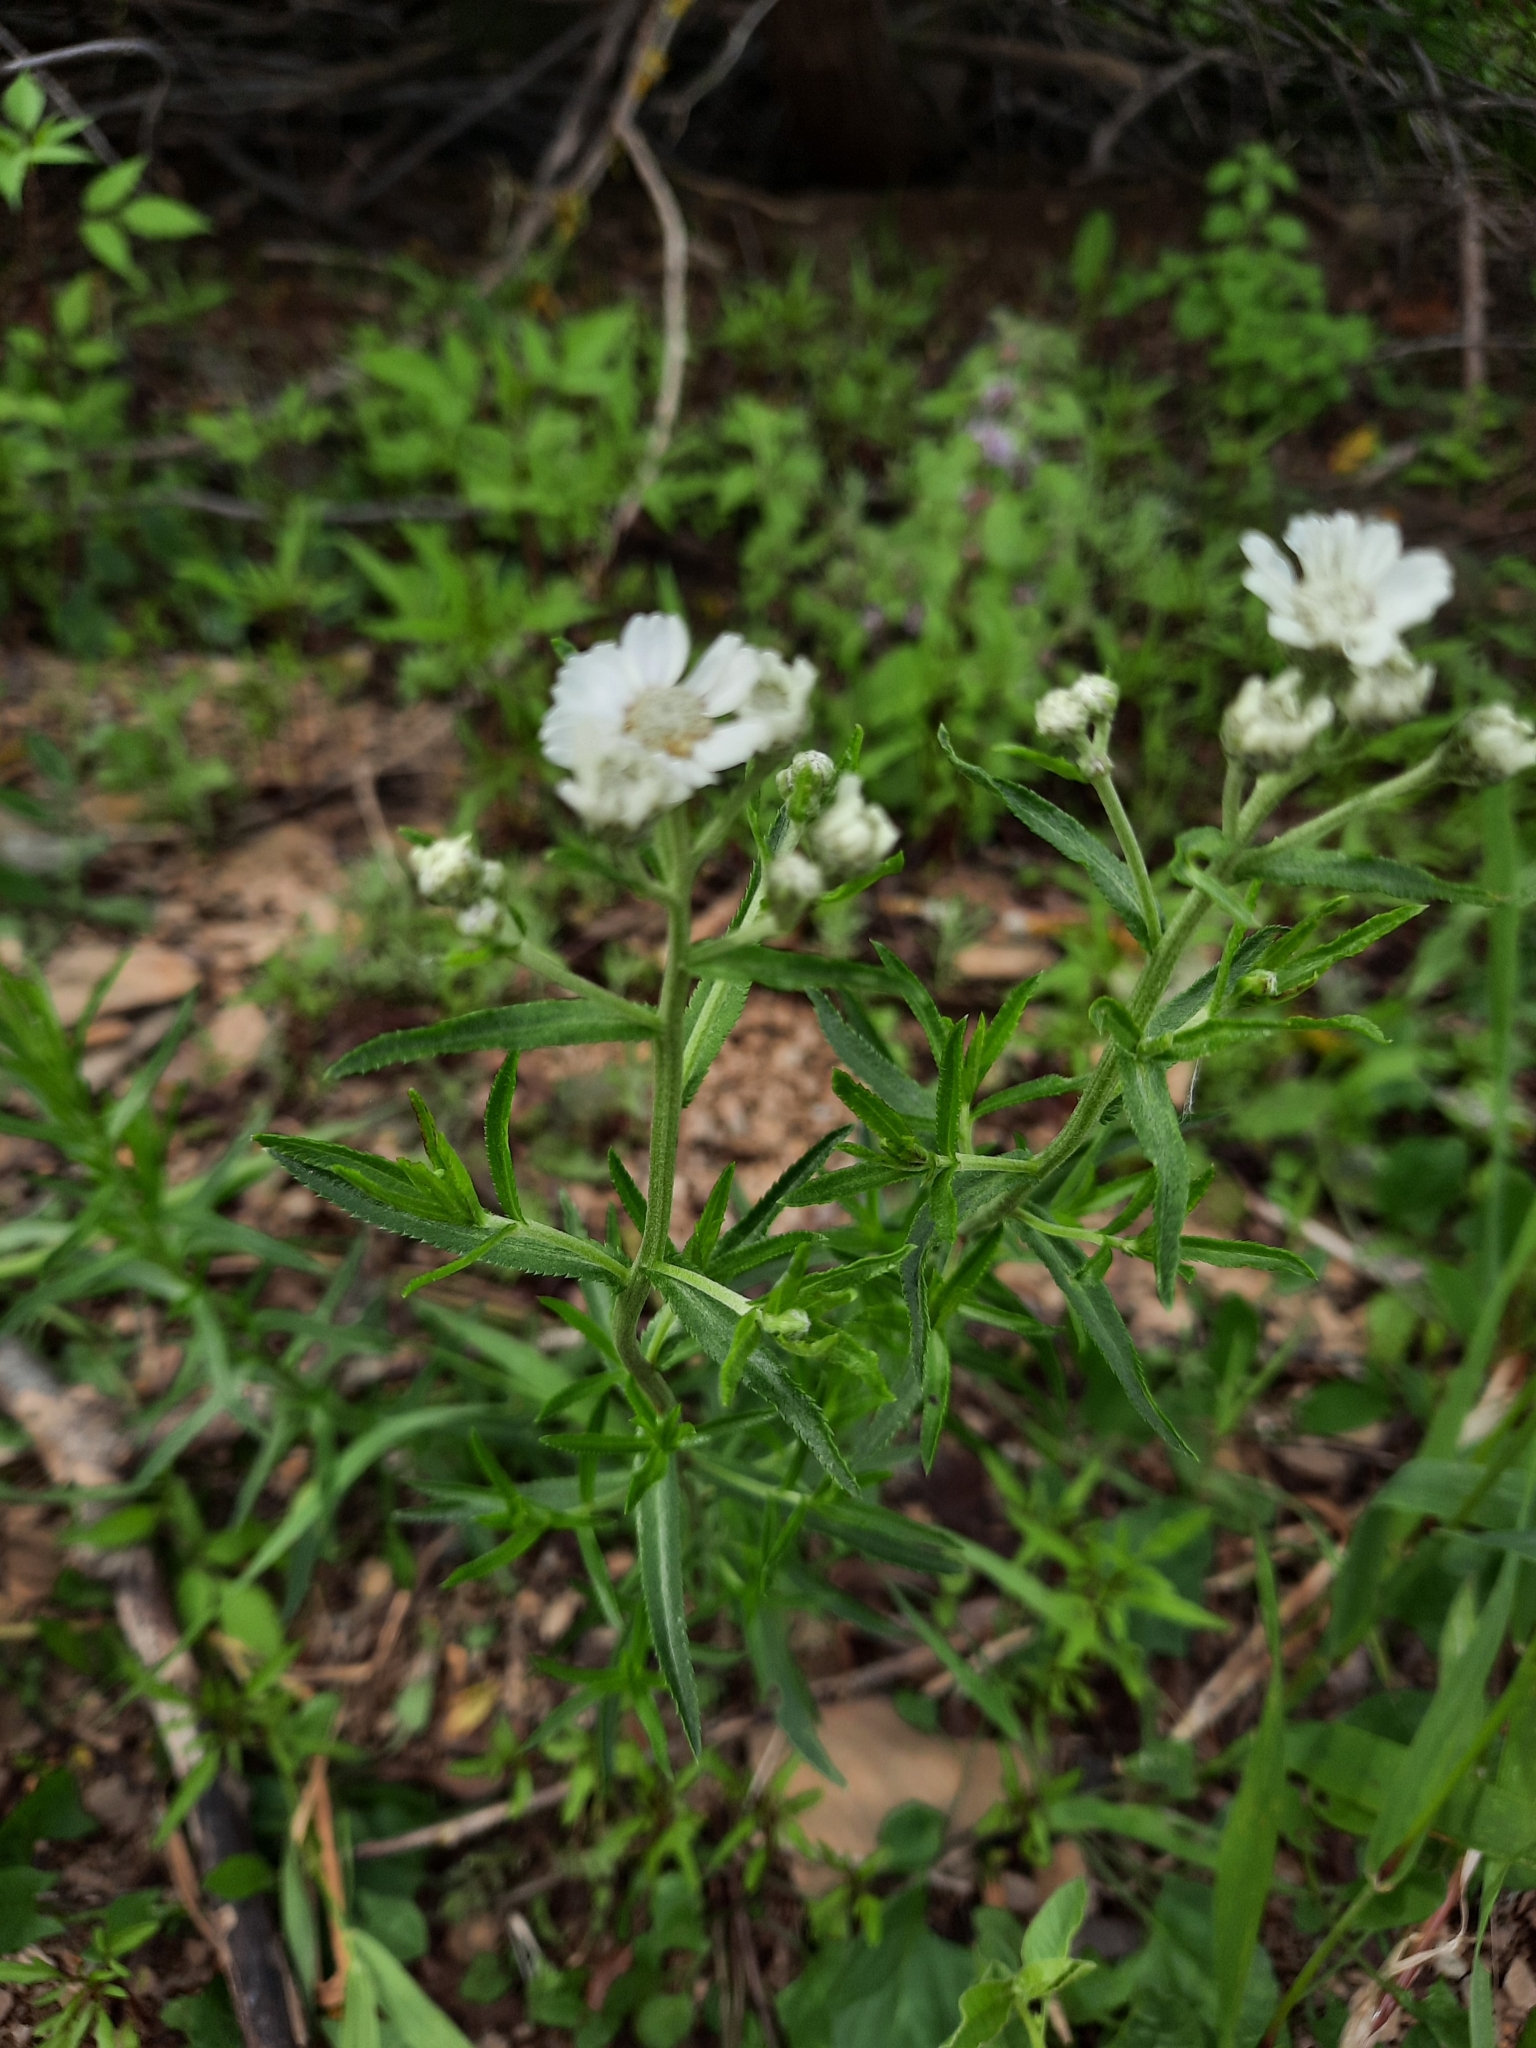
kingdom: Plantae
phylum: Tracheophyta
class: Magnoliopsida
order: Asterales
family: Asteraceae
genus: Achillea
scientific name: Achillea ptarmica
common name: Sneezeweed
